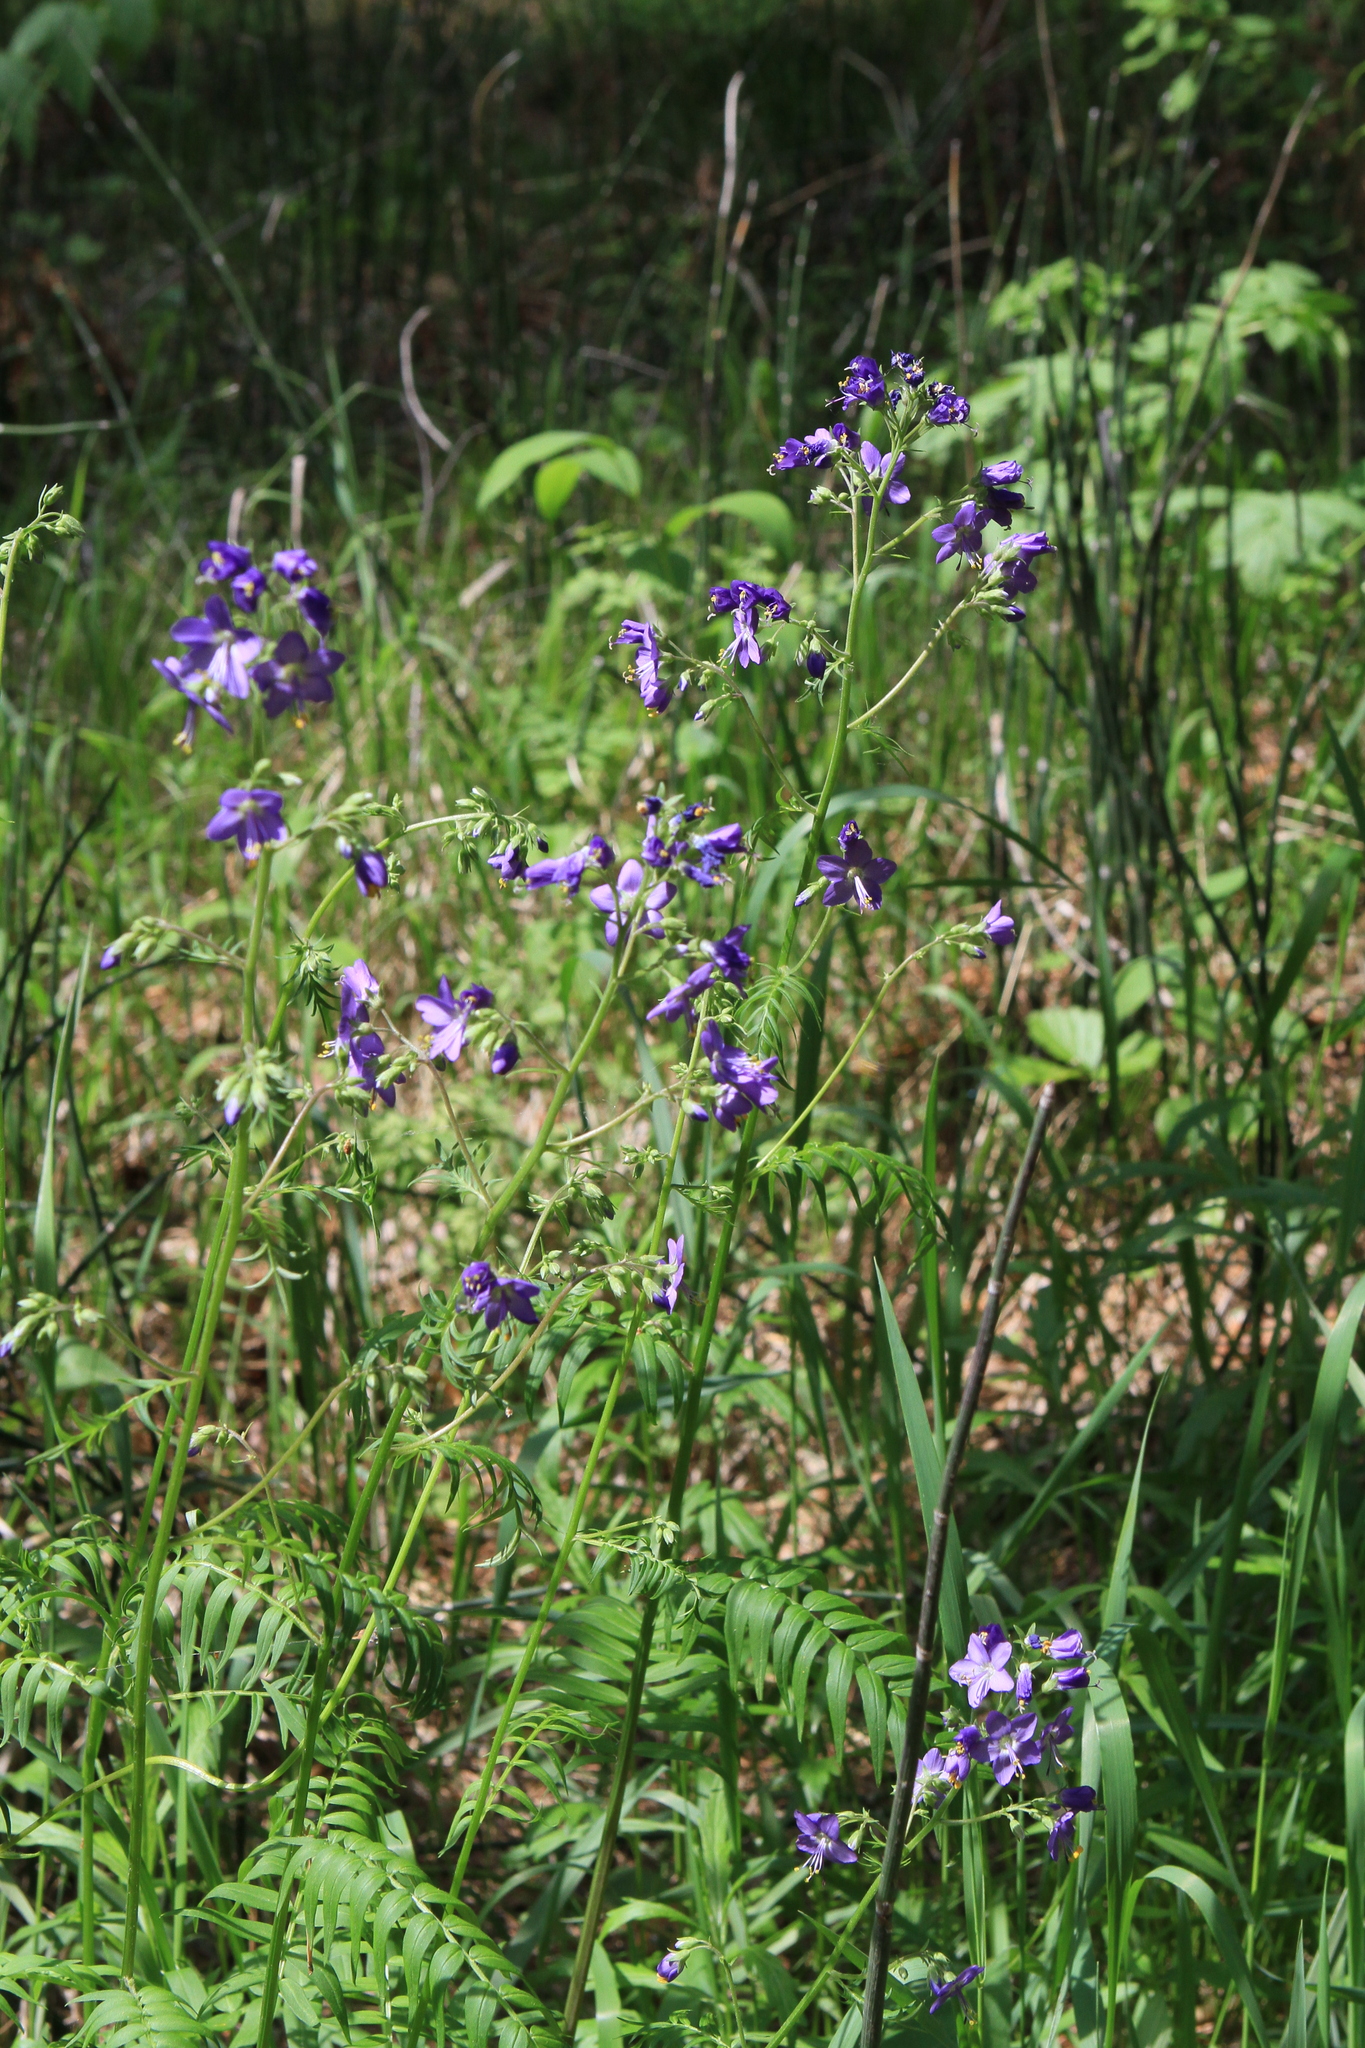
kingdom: Plantae
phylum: Tracheophyta
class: Magnoliopsida
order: Ericales
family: Polemoniaceae
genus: Polemonium
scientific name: Polemonium caeruleum
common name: Jacob's-ladder
